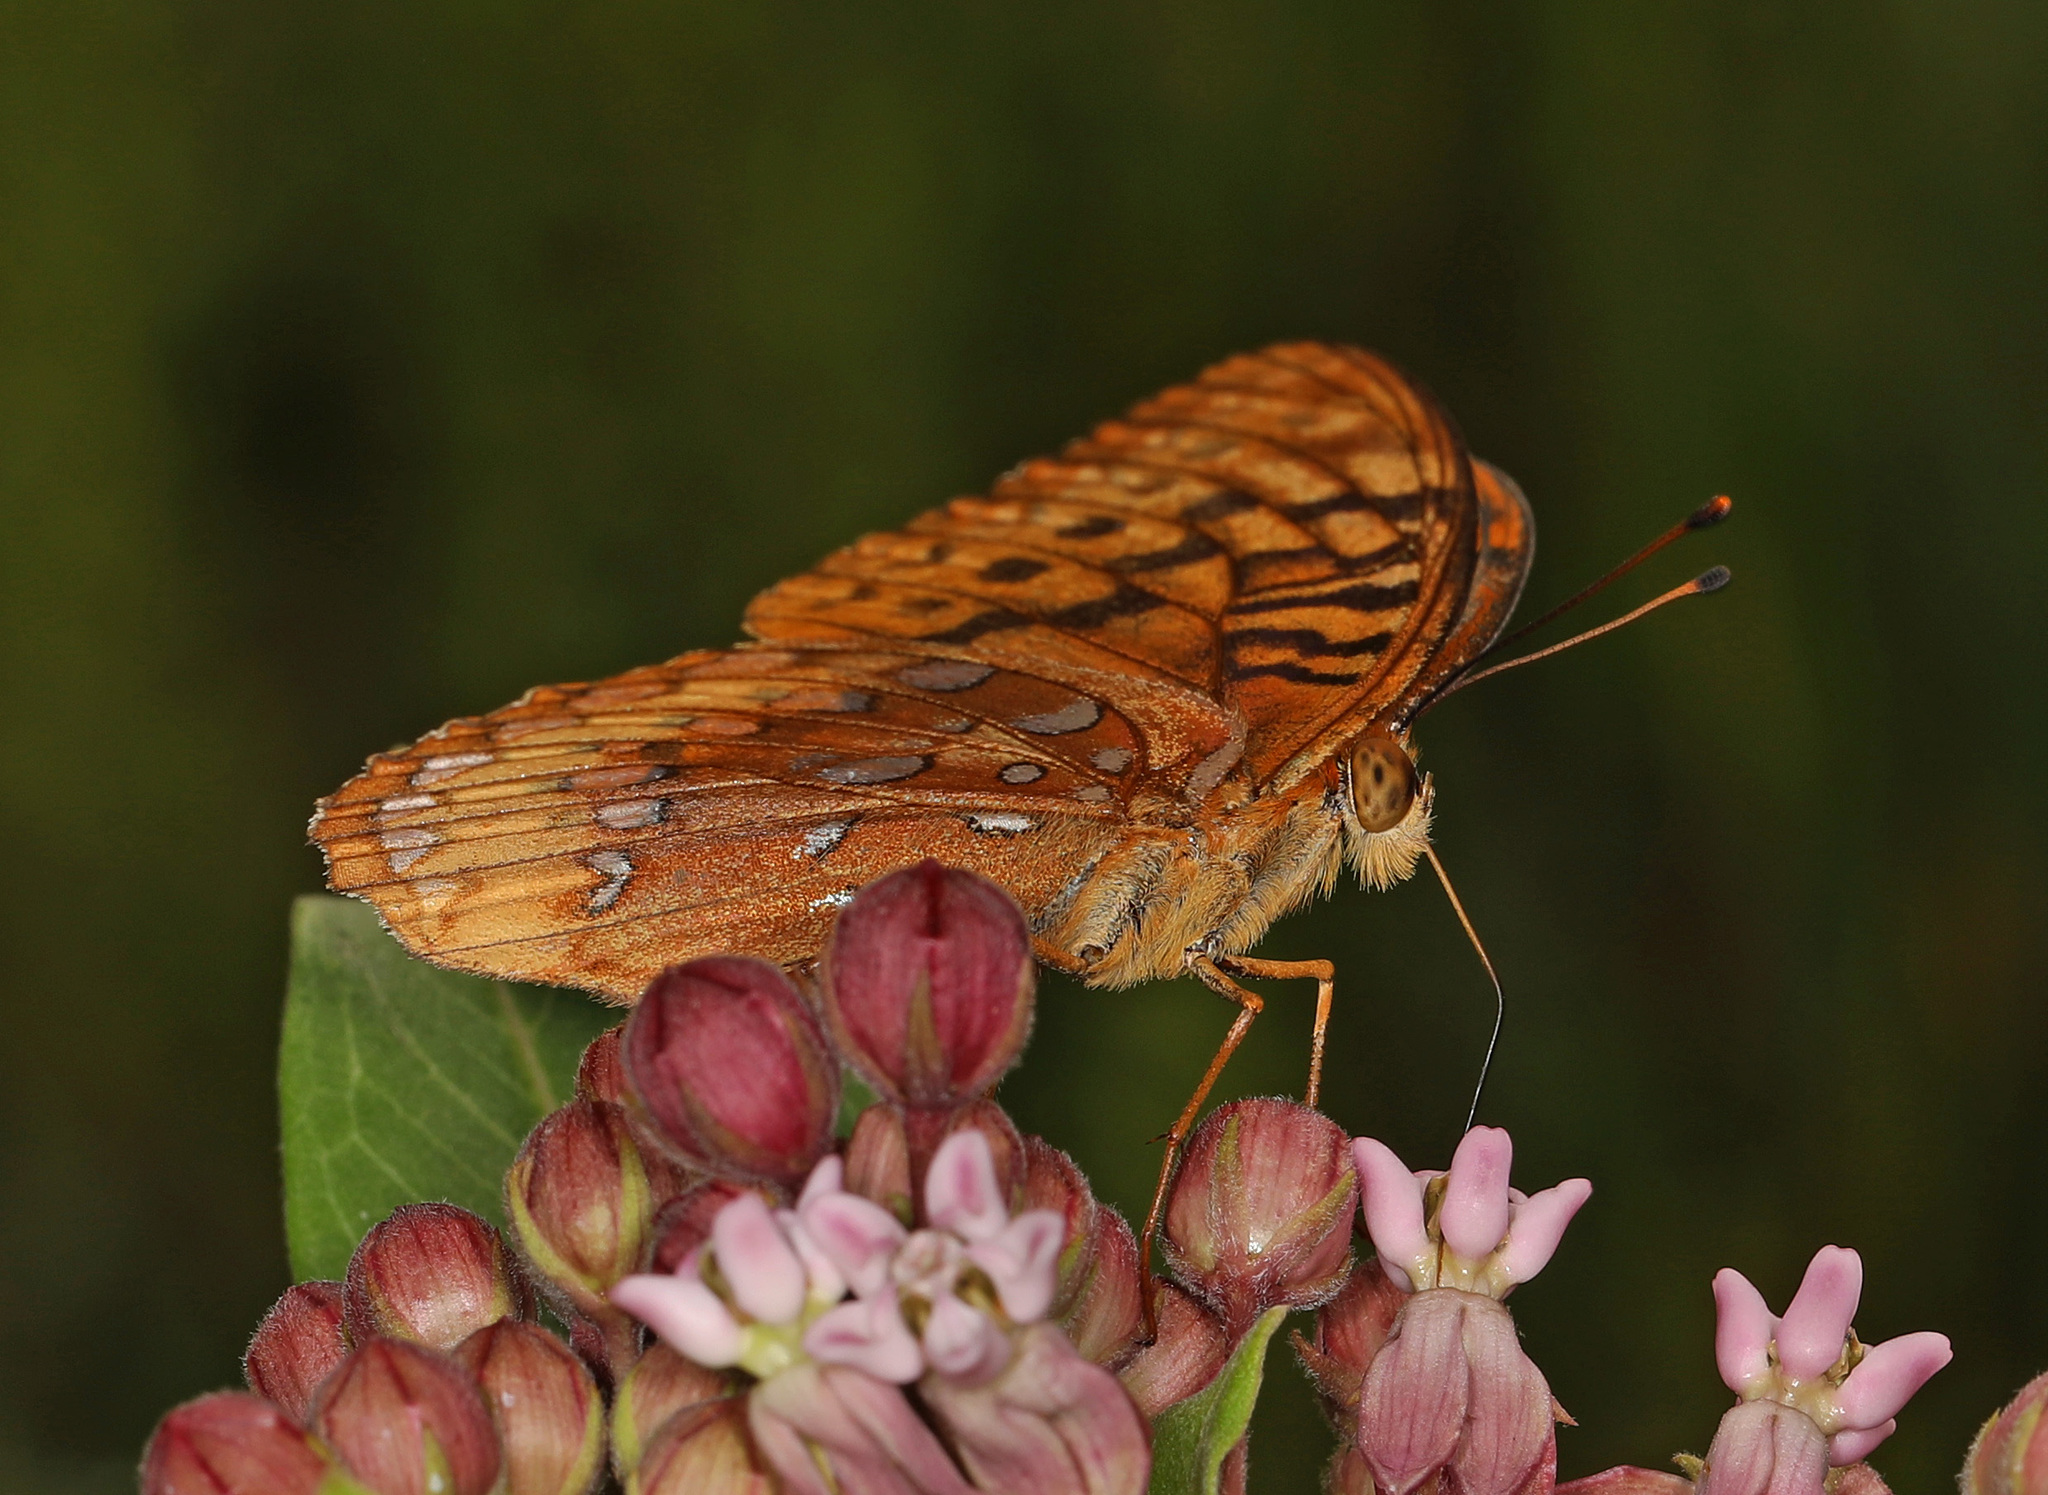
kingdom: Animalia
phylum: Arthropoda
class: Insecta
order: Lepidoptera
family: Nymphalidae
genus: Speyeria
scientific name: Speyeria cybele
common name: Great spangled fritillary
